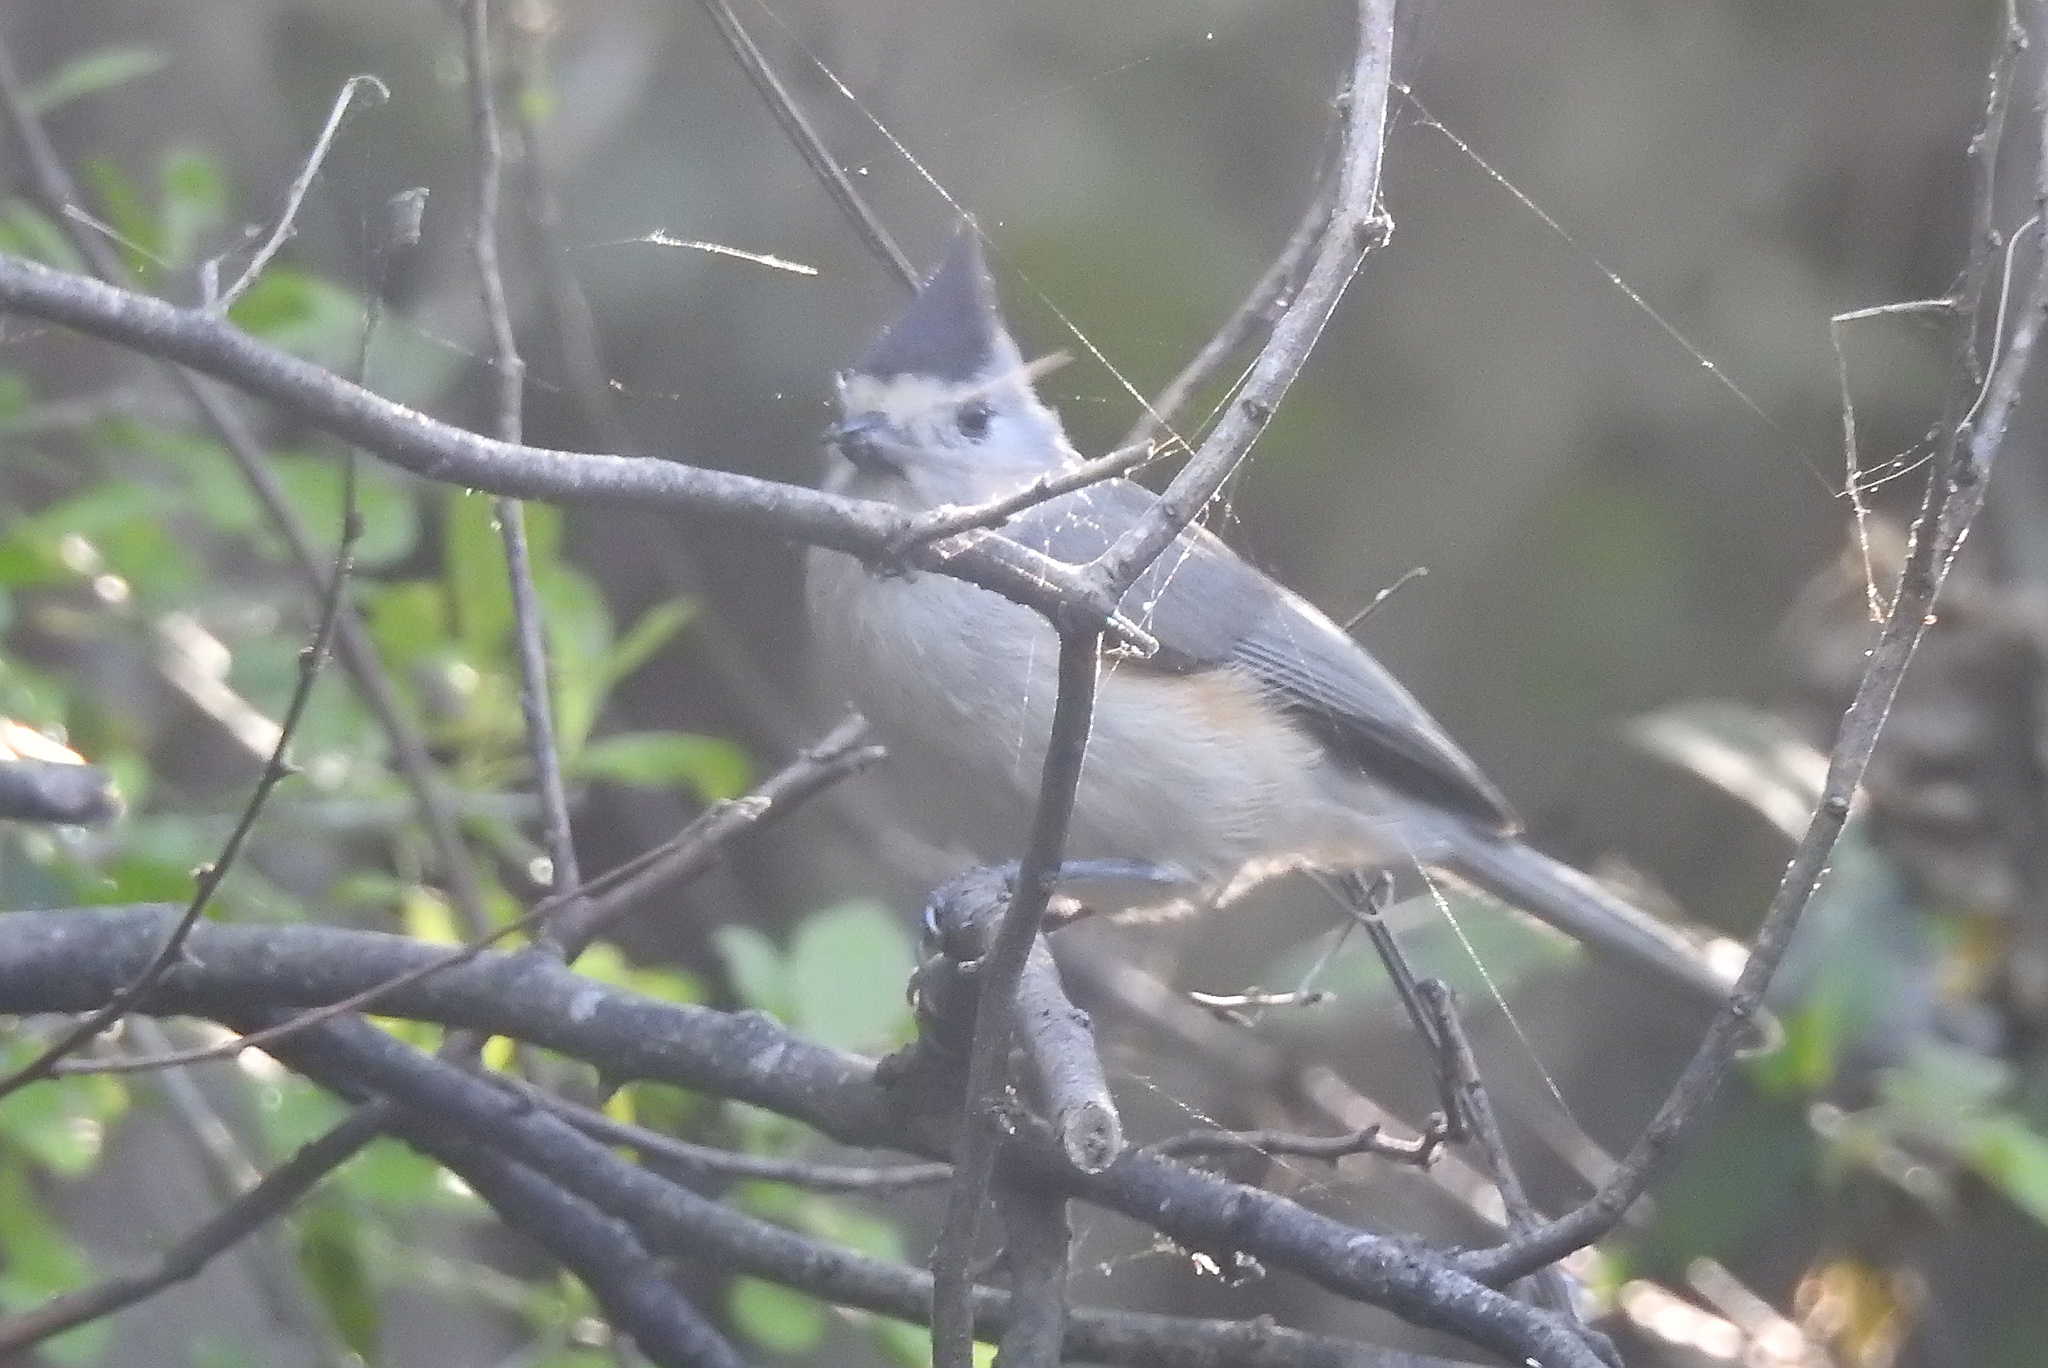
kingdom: Animalia
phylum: Chordata
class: Aves
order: Passeriformes
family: Paridae
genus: Baeolophus
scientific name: Baeolophus atricristatus
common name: Black-crested titmouse
